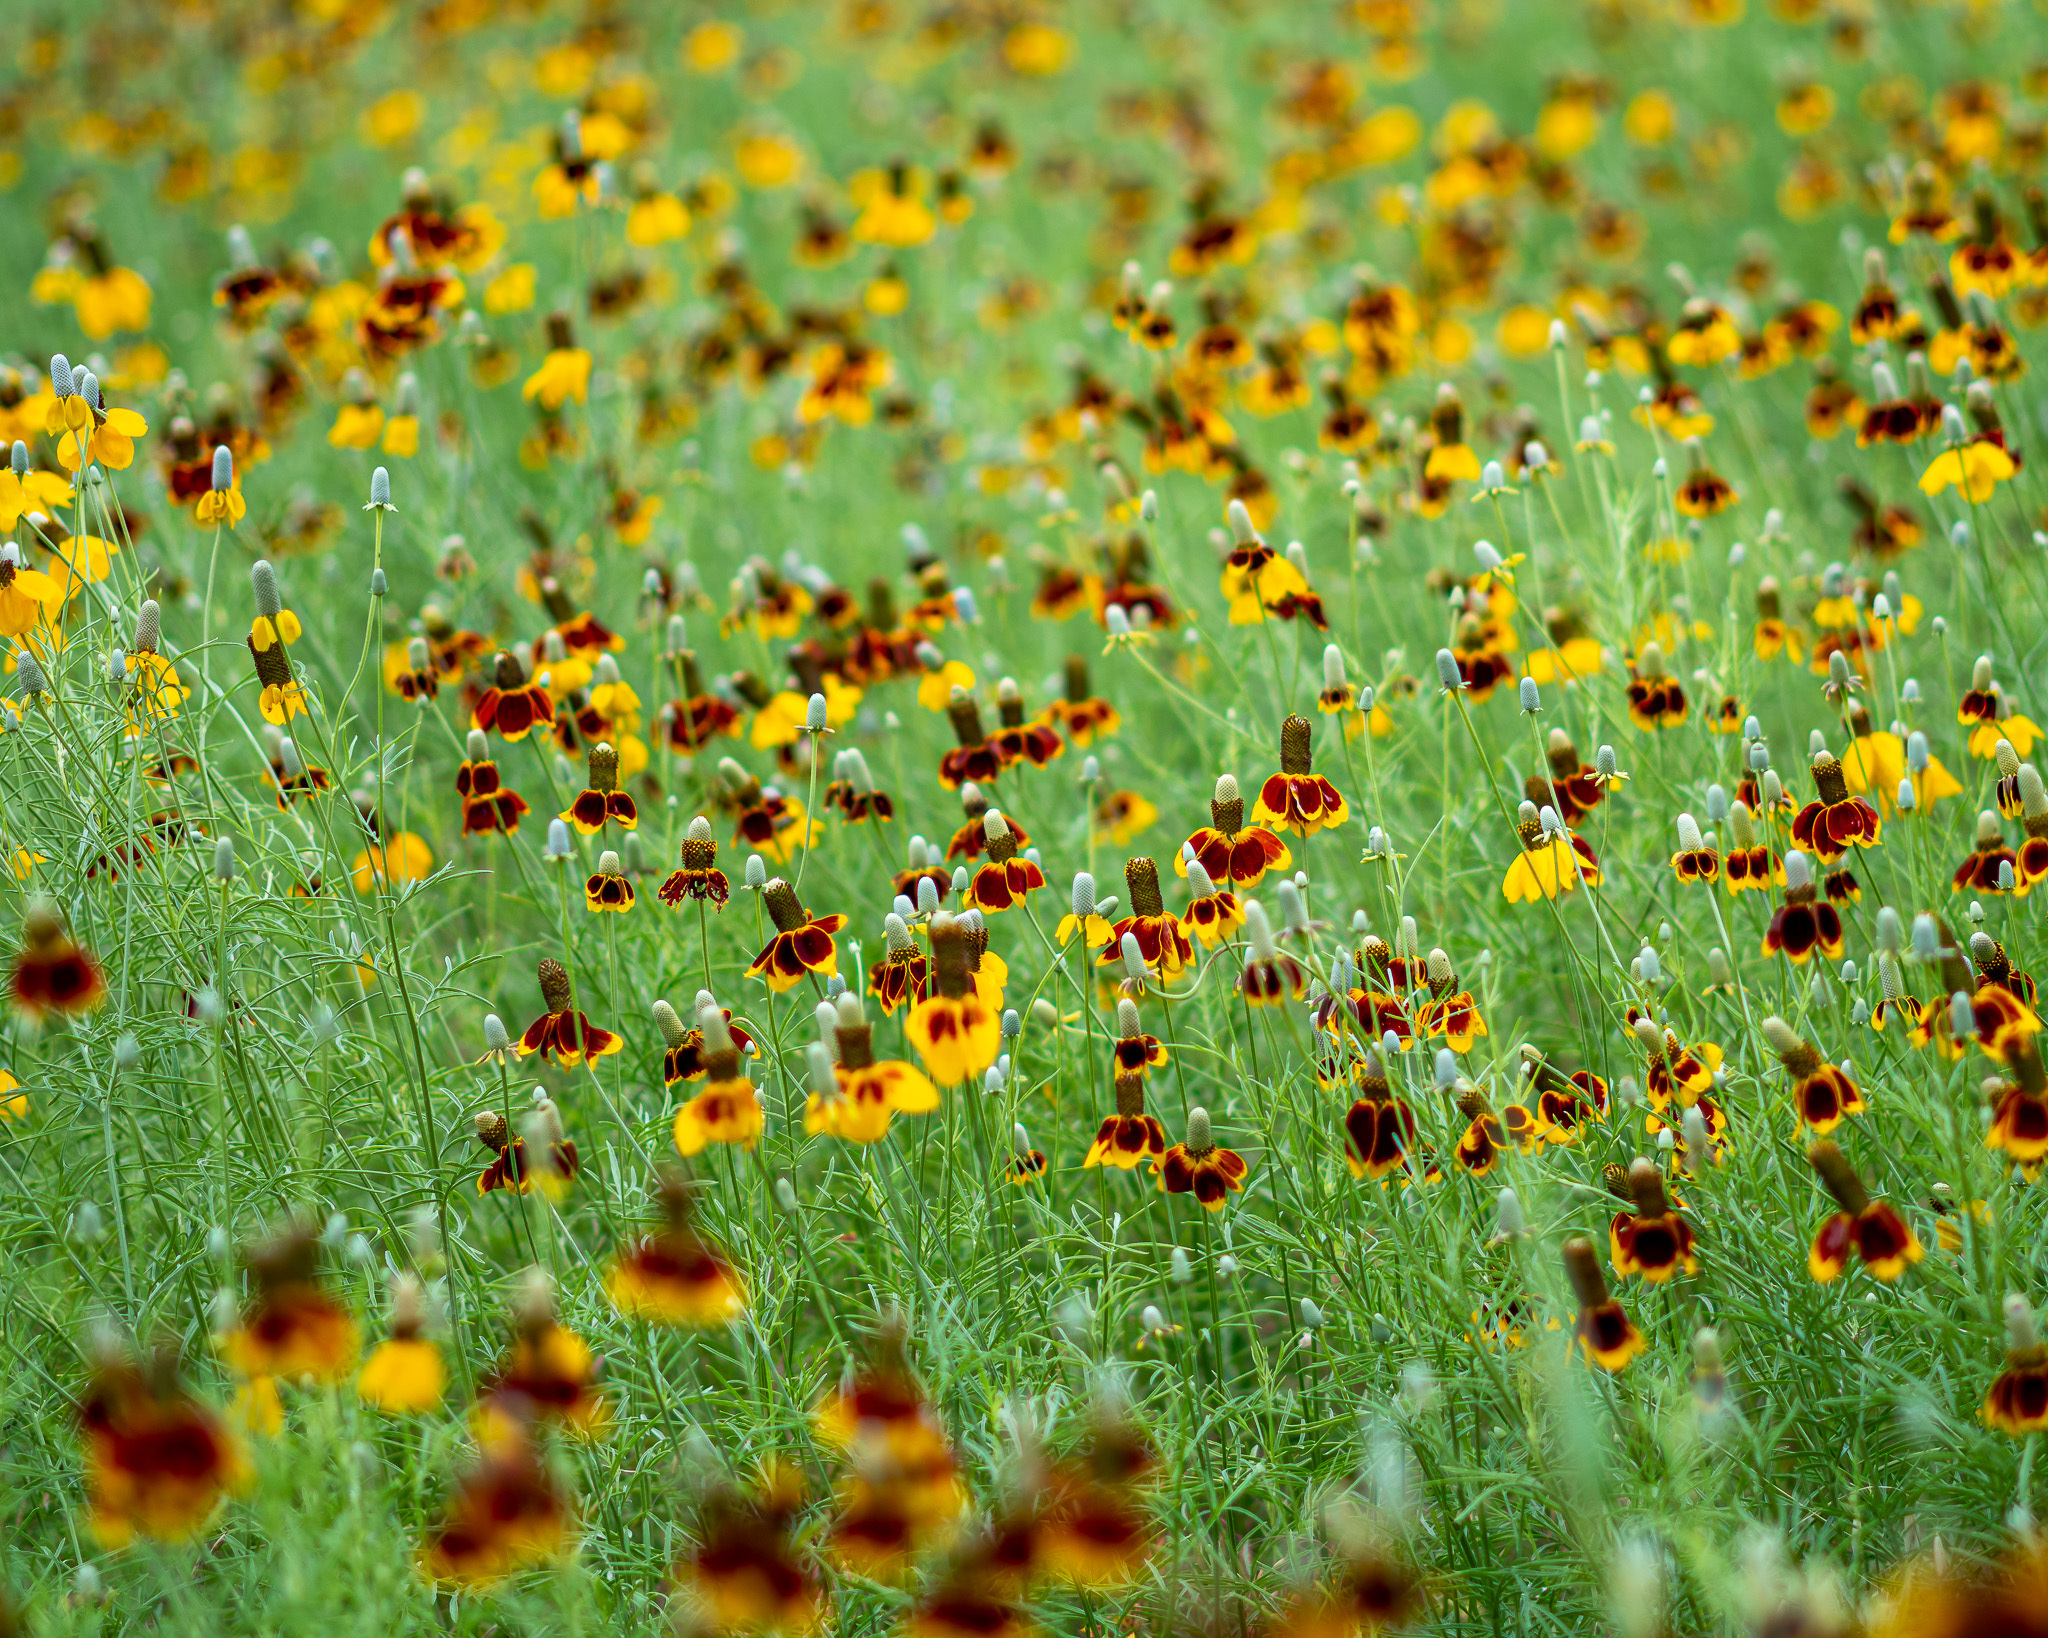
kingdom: Plantae
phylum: Tracheophyta
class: Magnoliopsida
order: Asterales
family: Asteraceae
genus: Ratibida
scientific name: Ratibida columnifera
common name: Prairie coneflower
